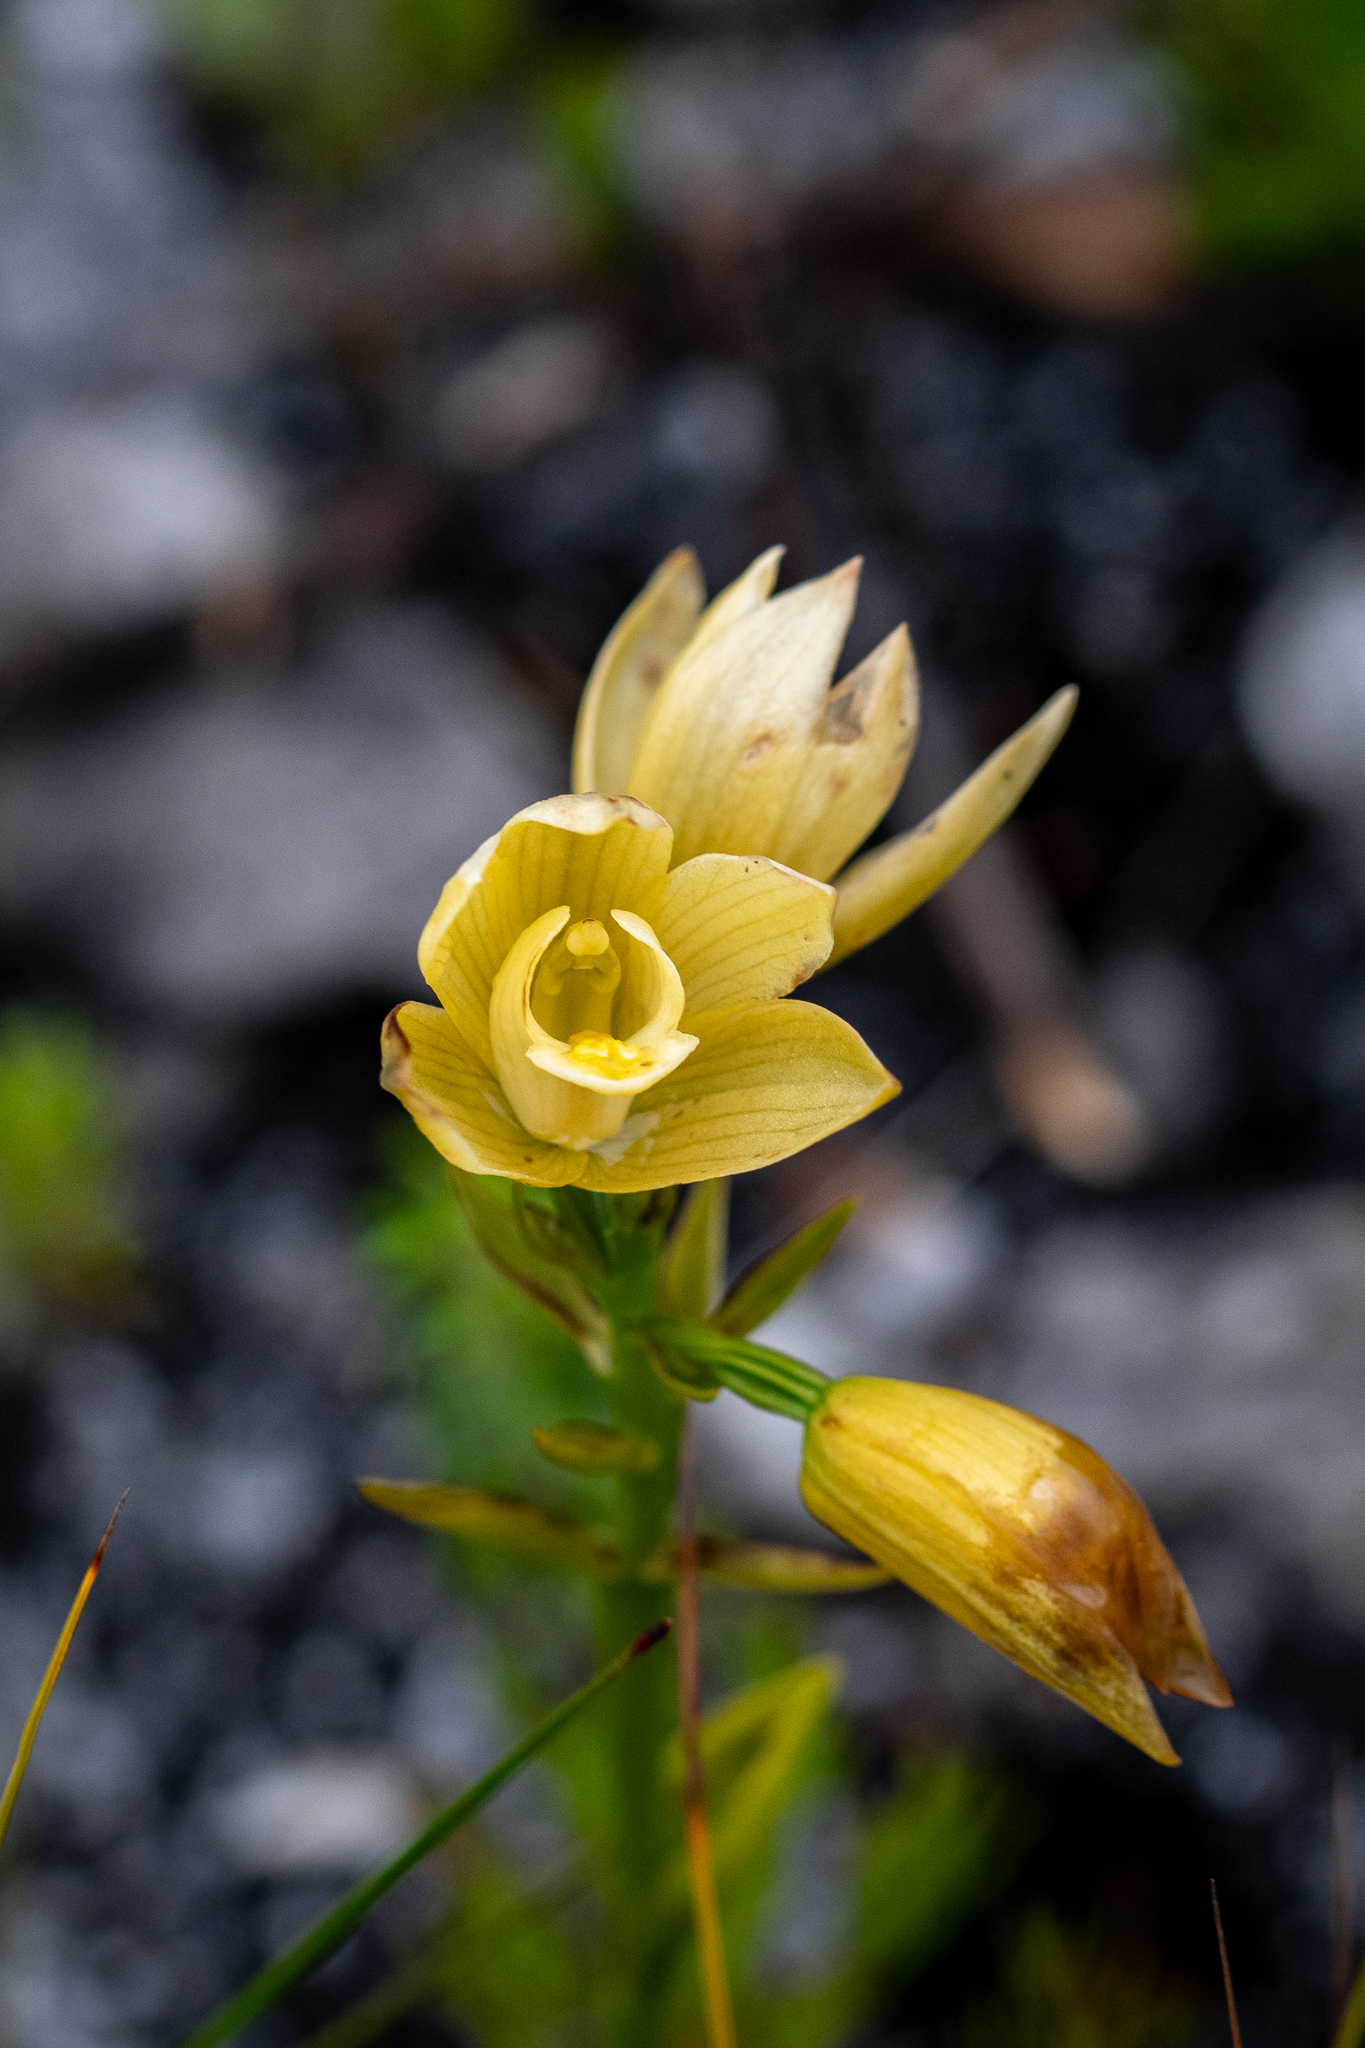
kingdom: Plantae
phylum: Tracheophyta
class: Liliopsida
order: Asparagales
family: Orchidaceae
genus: Eulophia
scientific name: Eulophia tabularis
